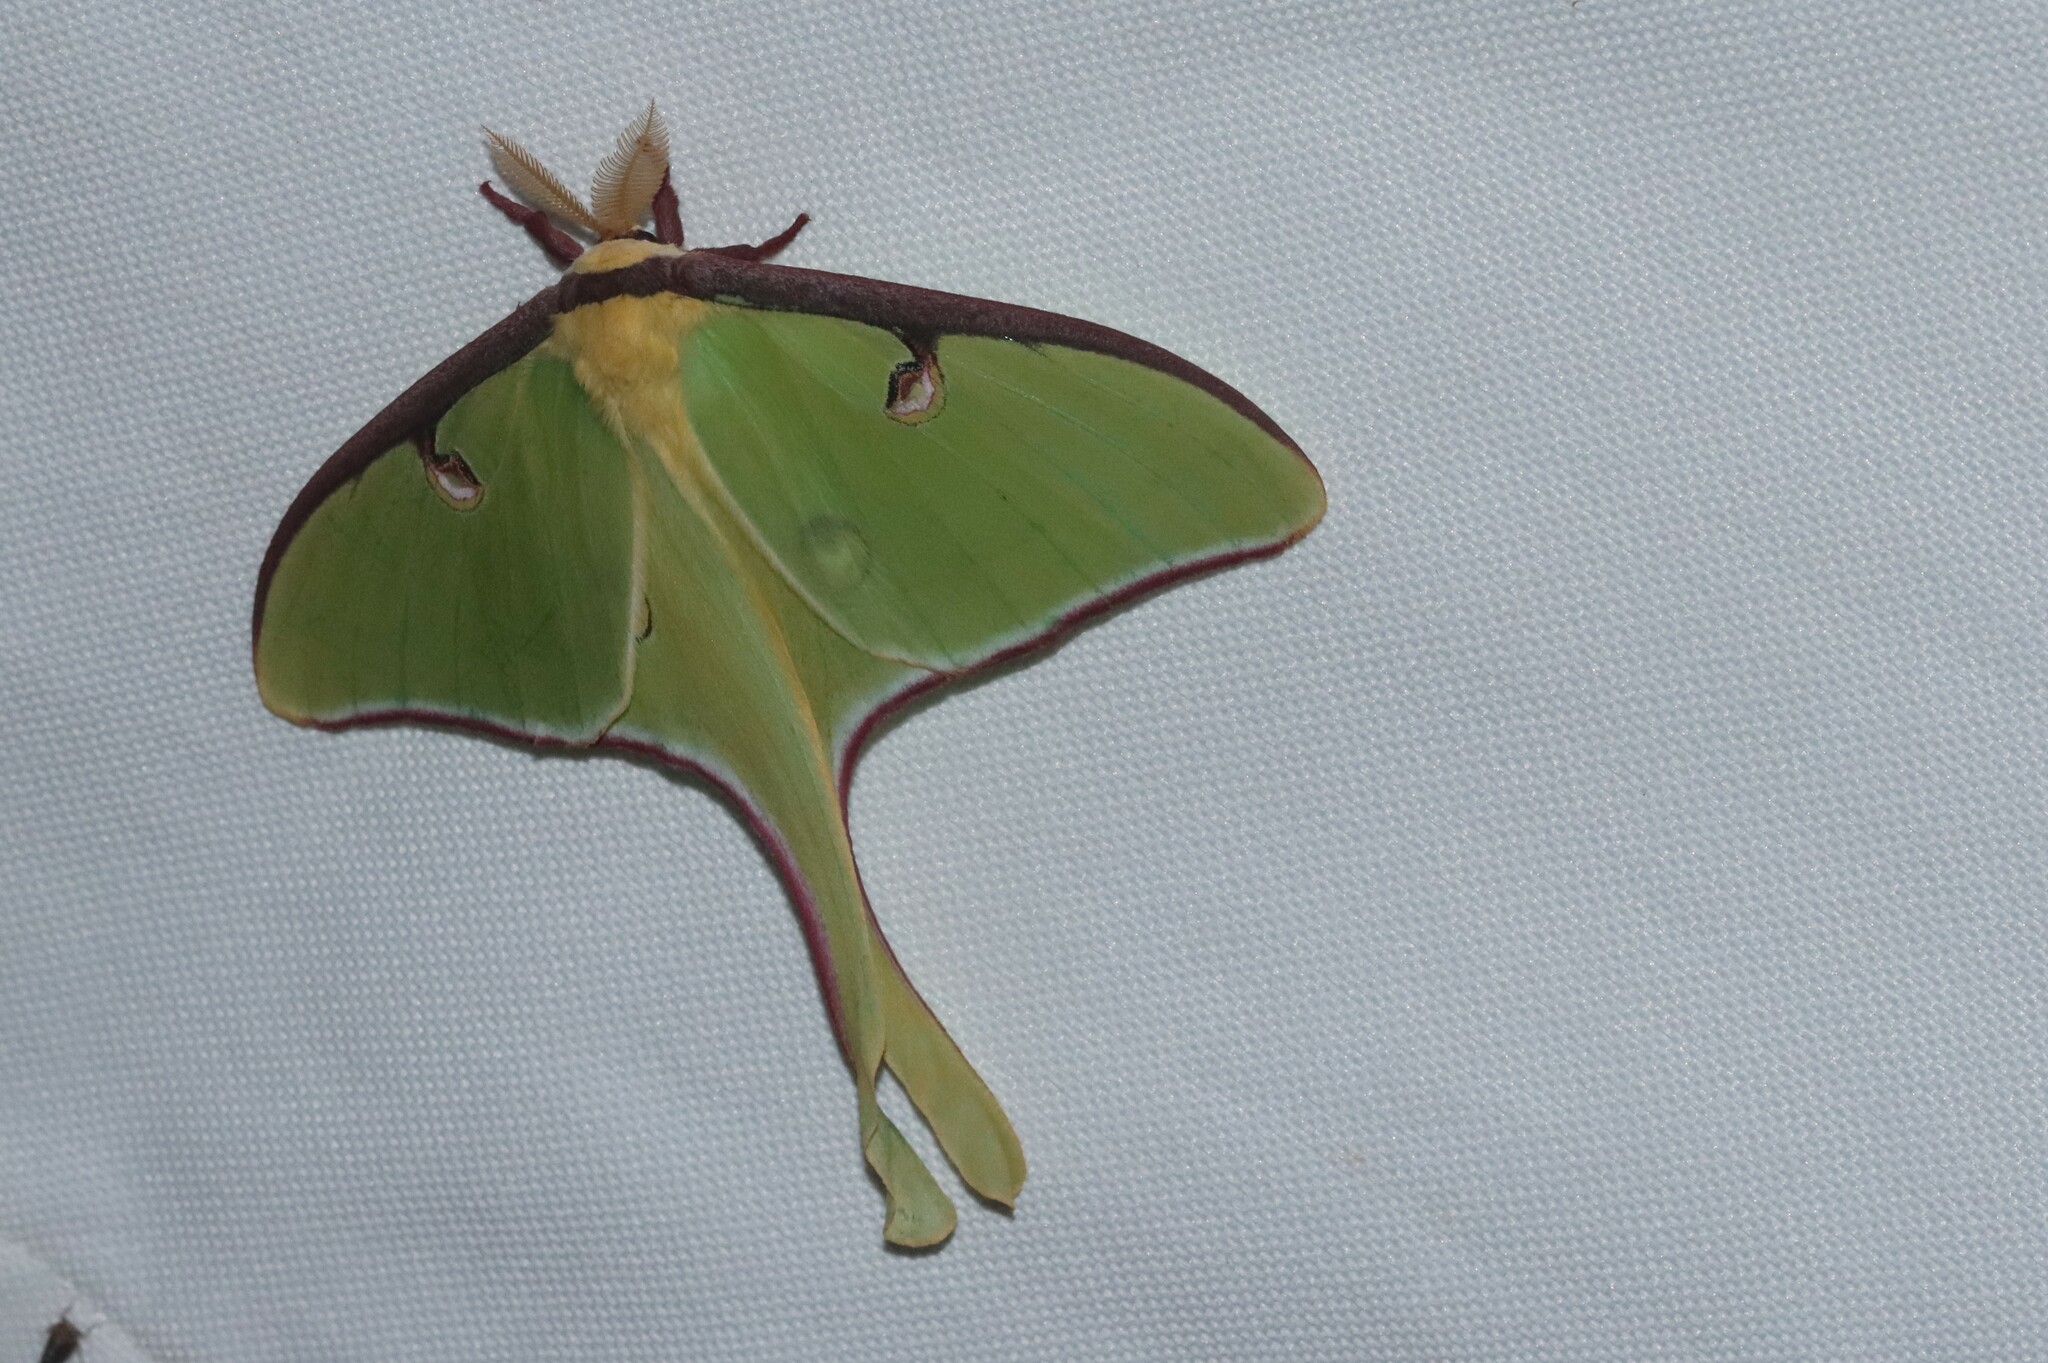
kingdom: Animalia
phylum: Arthropoda
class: Insecta
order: Lepidoptera
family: Saturniidae
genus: Actias
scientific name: Actias luna
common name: Luna moth
